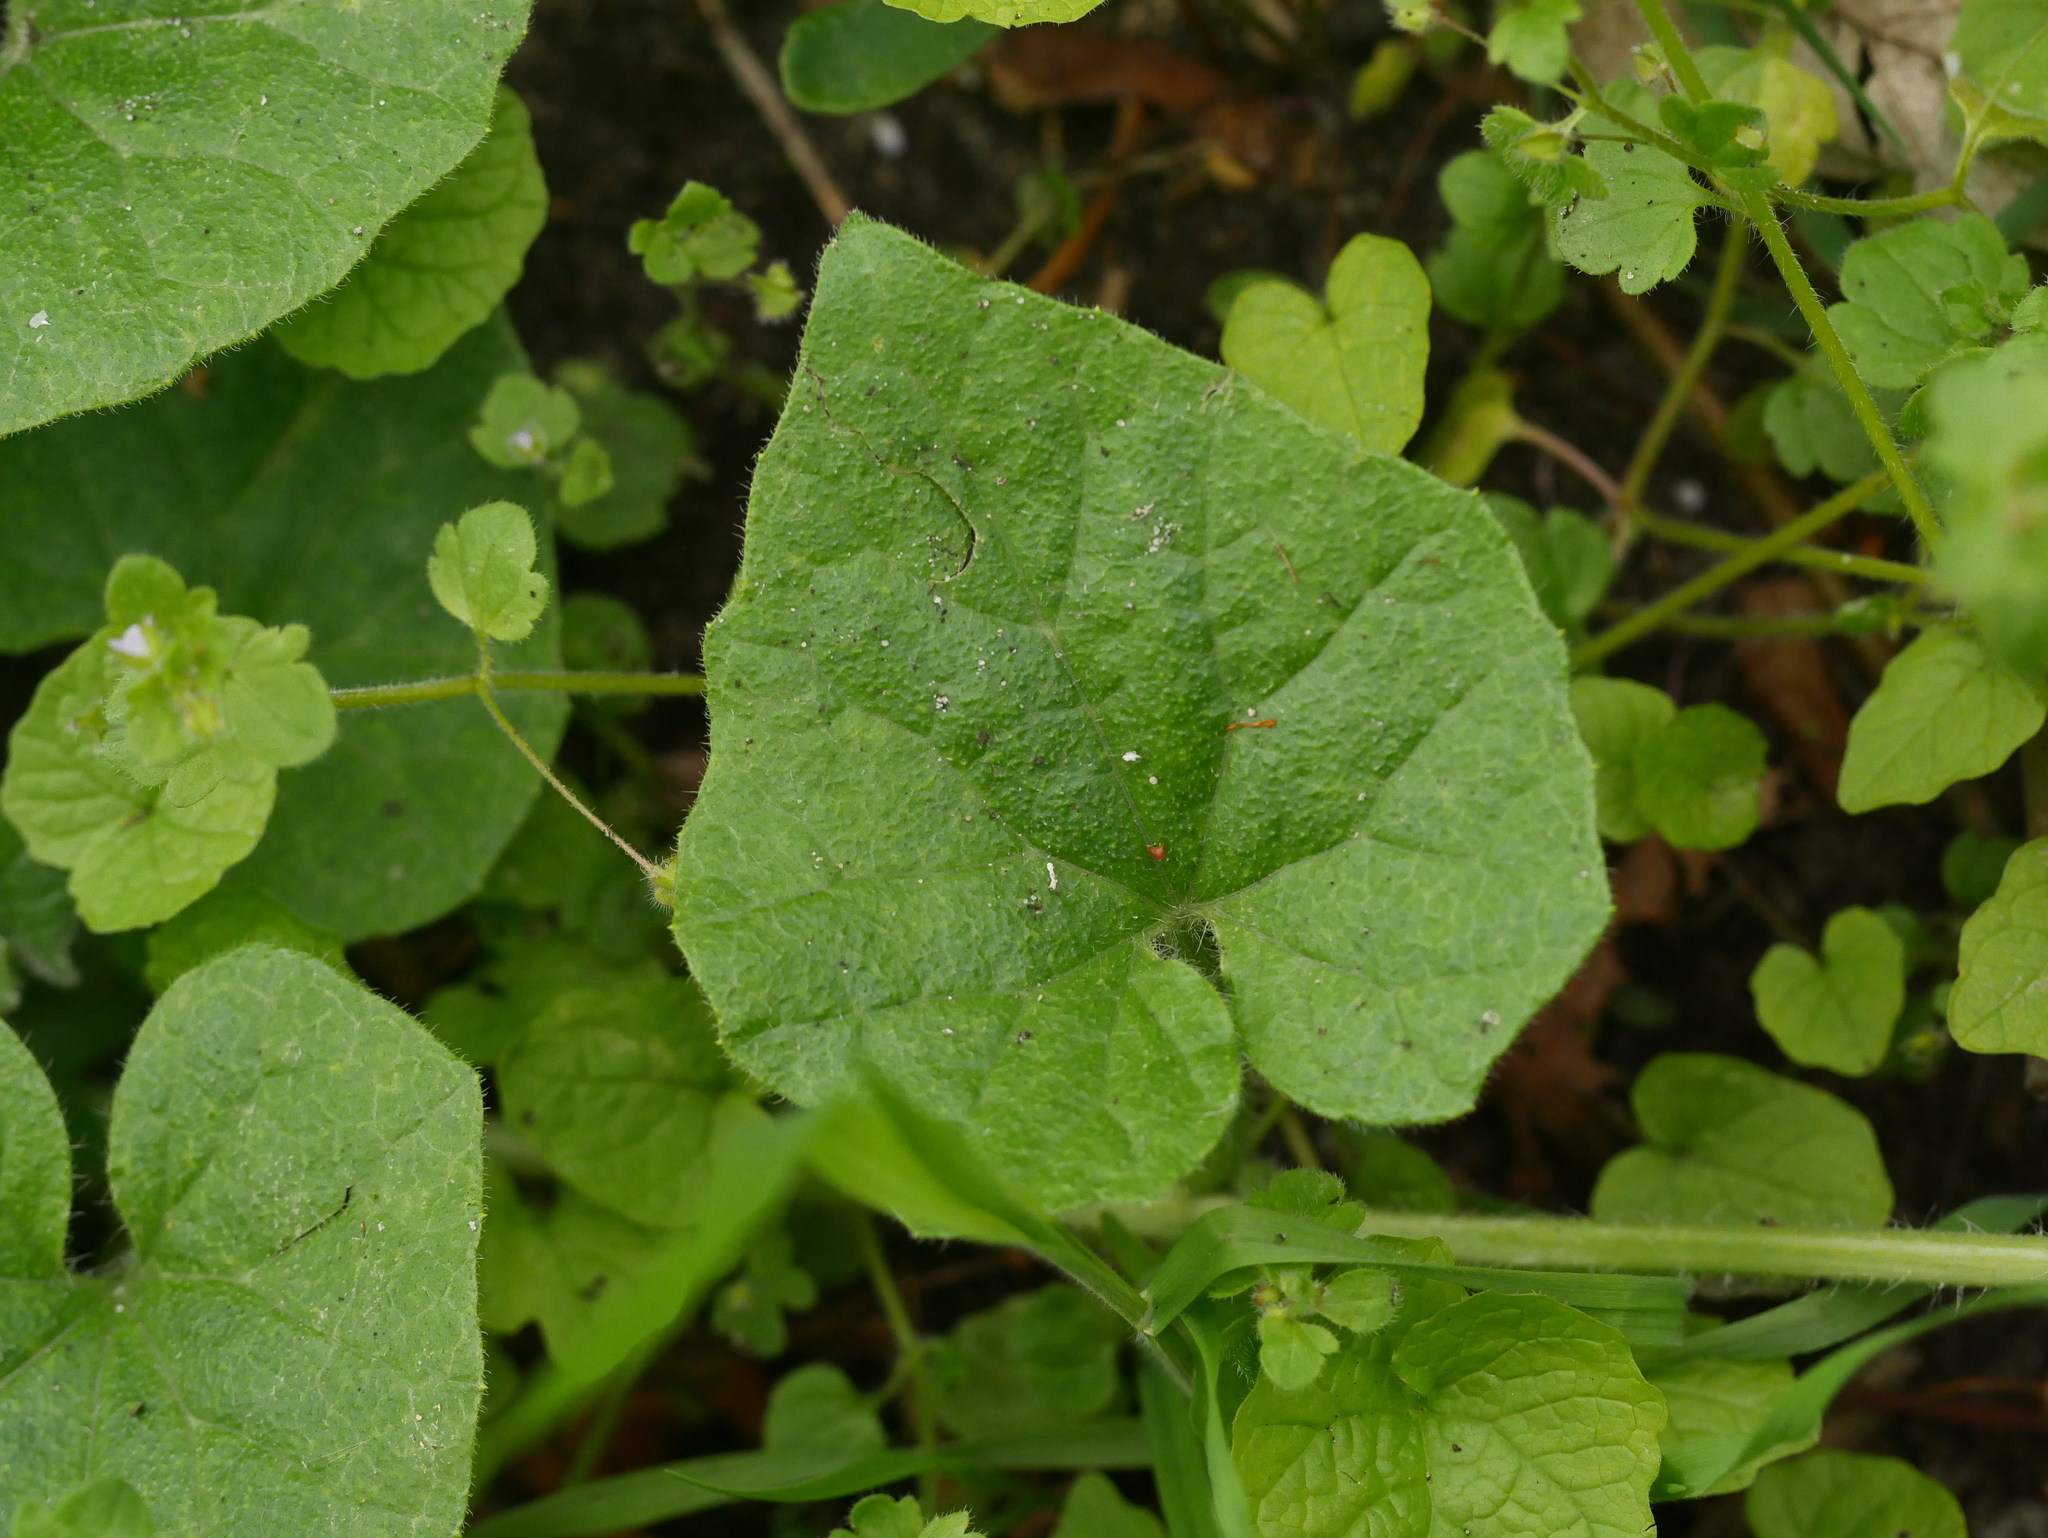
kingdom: Plantae
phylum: Tracheophyta
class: Magnoliopsida
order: Cucurbitales
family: Cucurbitaceae
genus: Bryonia
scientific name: Bryonia cretica
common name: Cretan bryony
